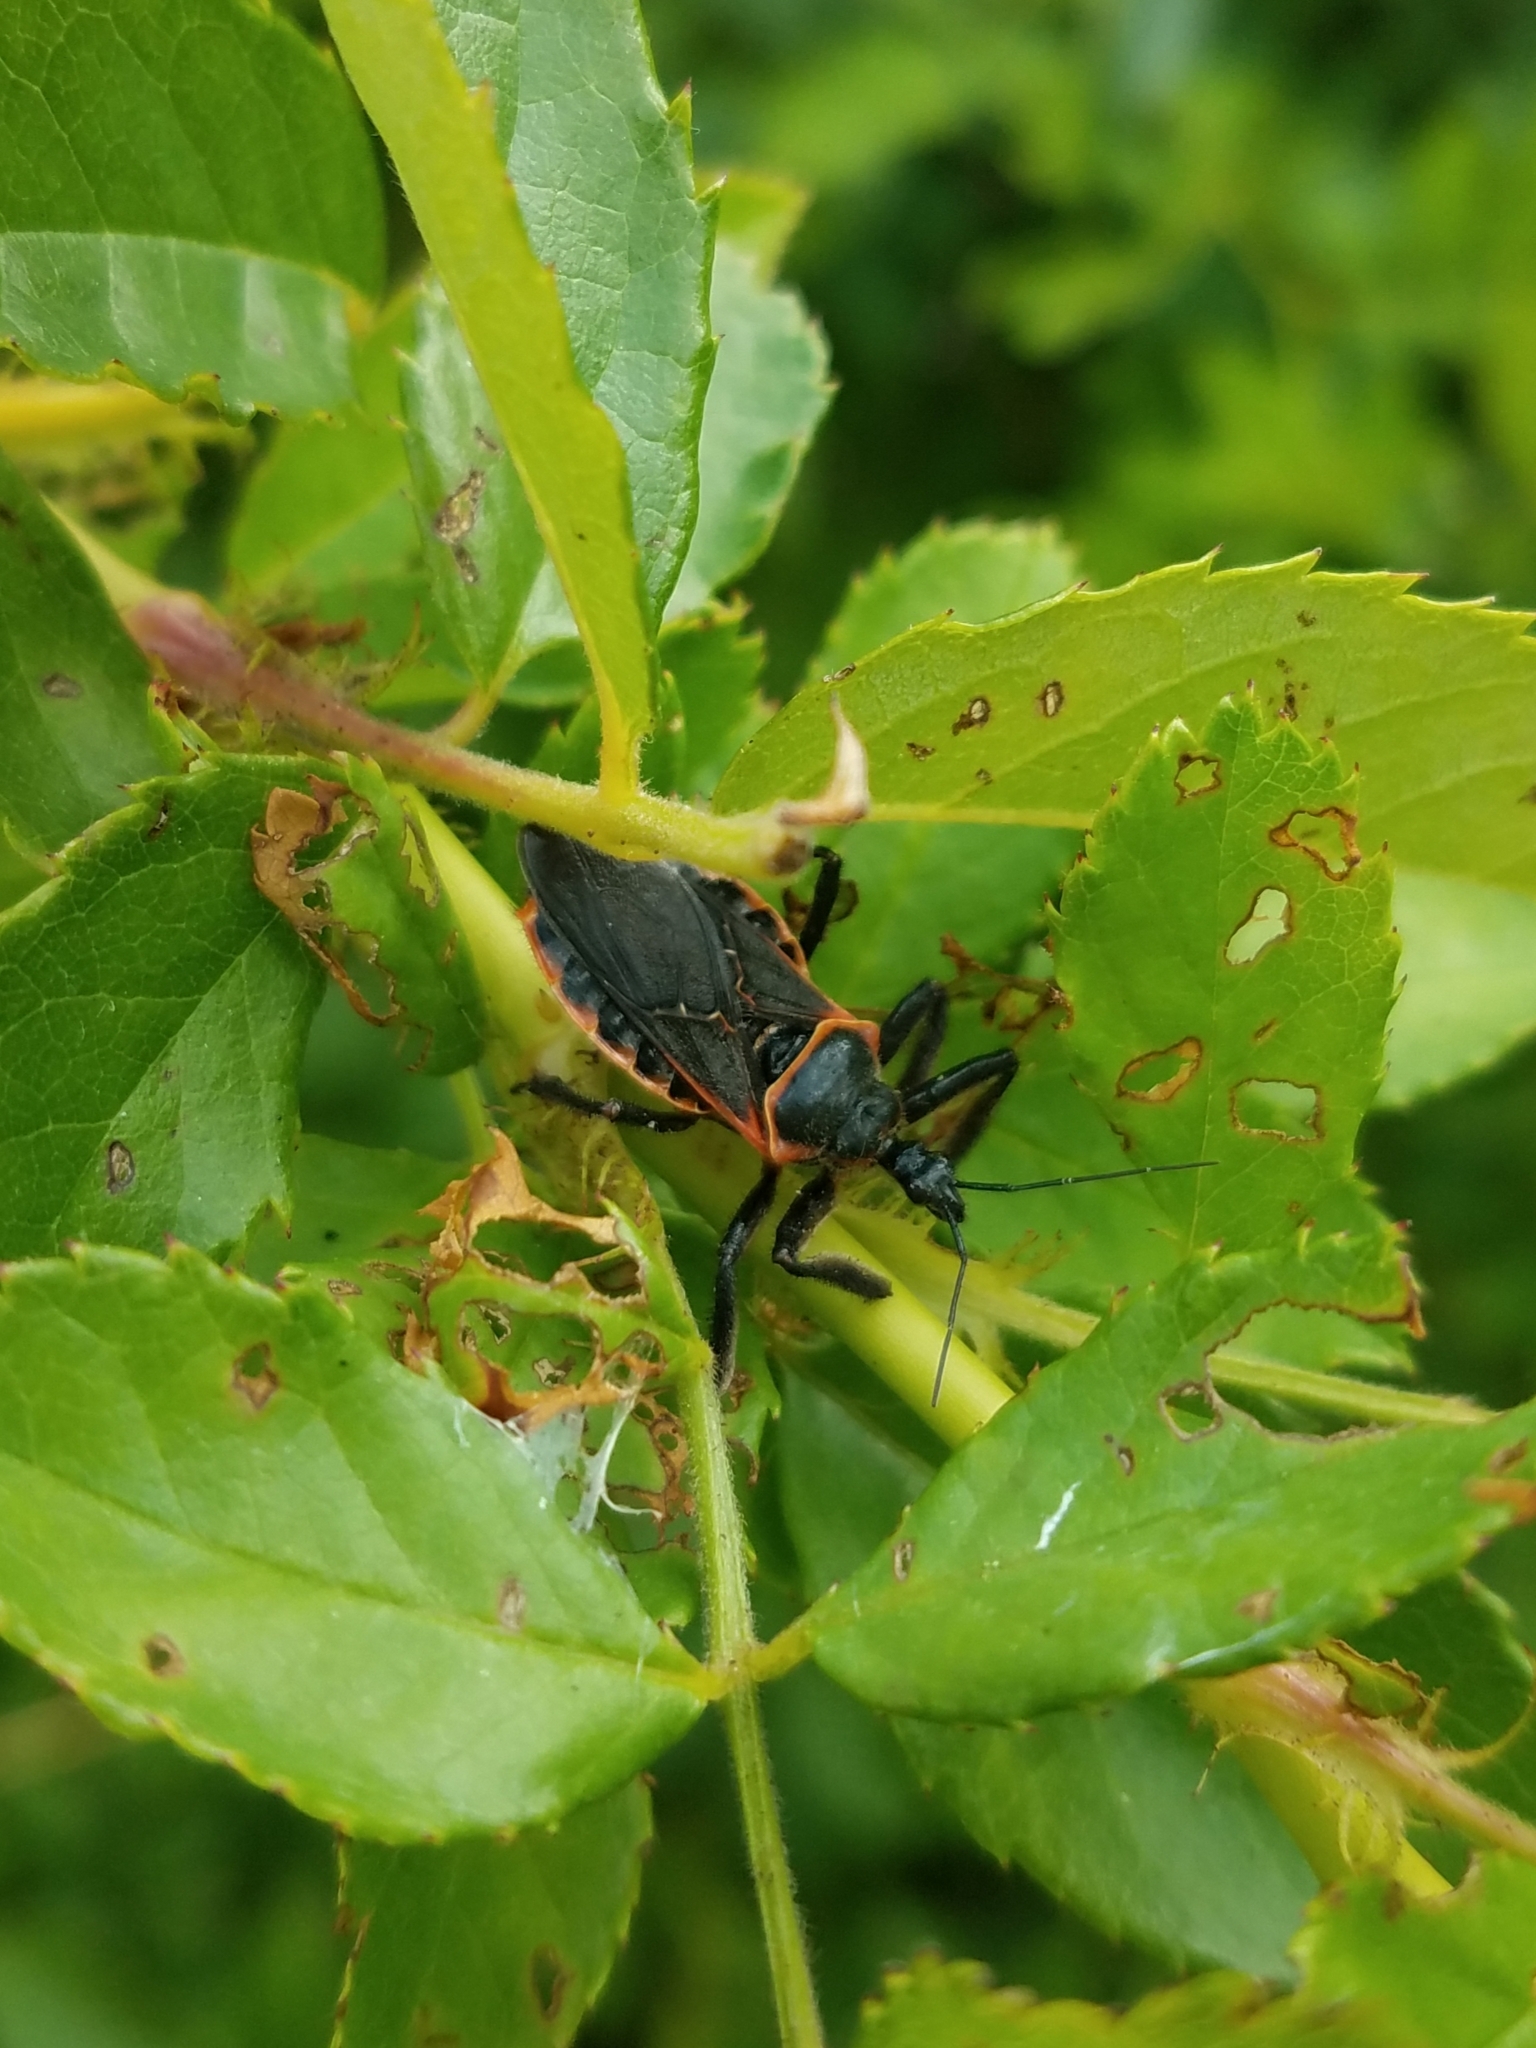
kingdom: Animalia
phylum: Arthropoda
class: Insecta
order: Hemiptera
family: Reduviidae
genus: Apiomerus
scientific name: Apiomerus crassipes
